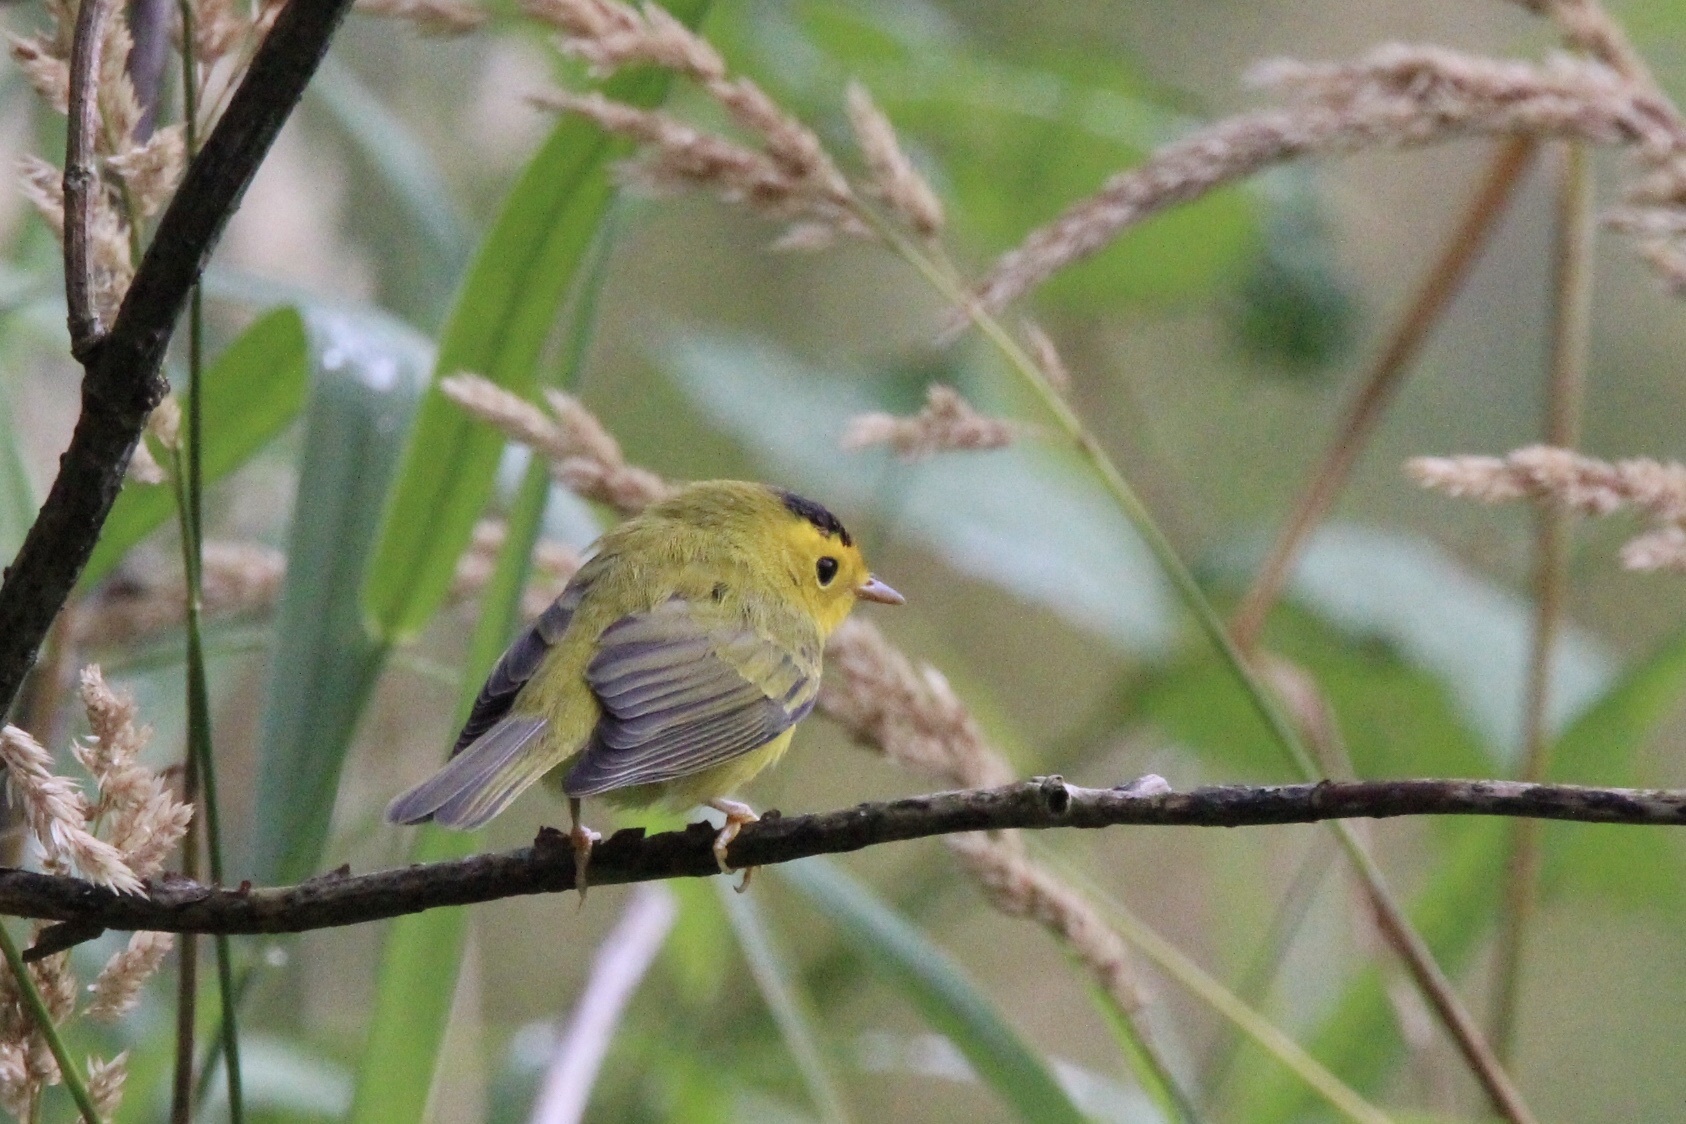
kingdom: Animalia
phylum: Chordata
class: Aves
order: Passeriformes
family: Parulidae
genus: Cardellina
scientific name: Cardellina pusilla
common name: Wilson's warbler
